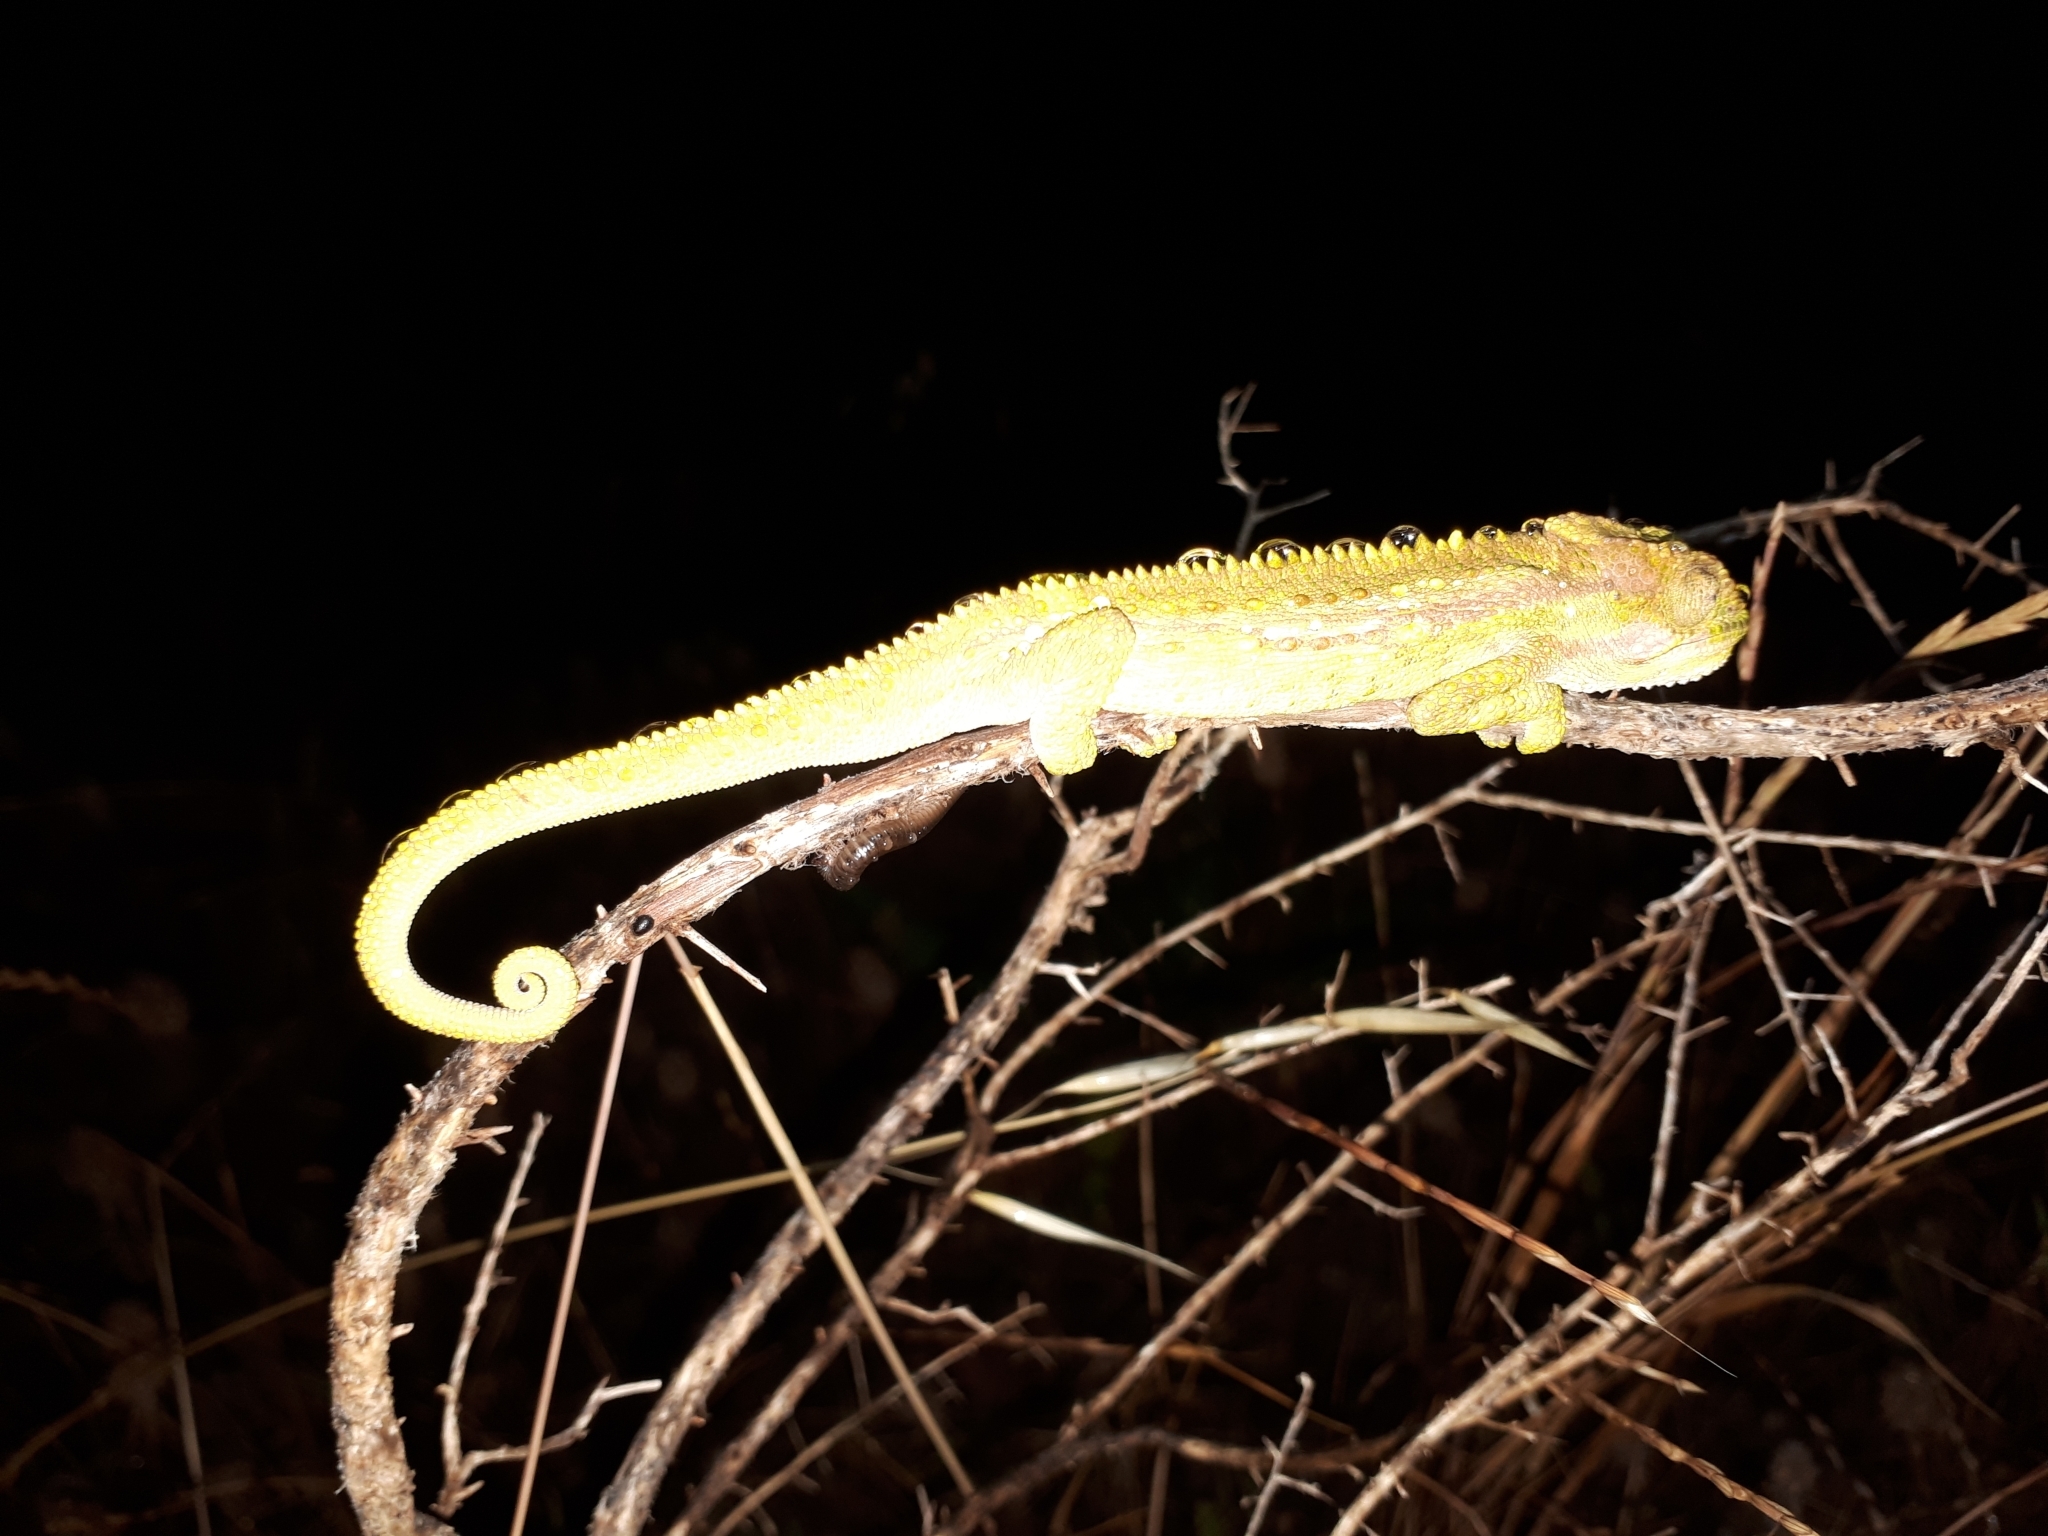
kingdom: Animalia
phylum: Chordata
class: Squamata
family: Chamaeleonidae
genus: Bradypodion
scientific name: Bradypodion pumilum
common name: Cape dwarf chameleon
